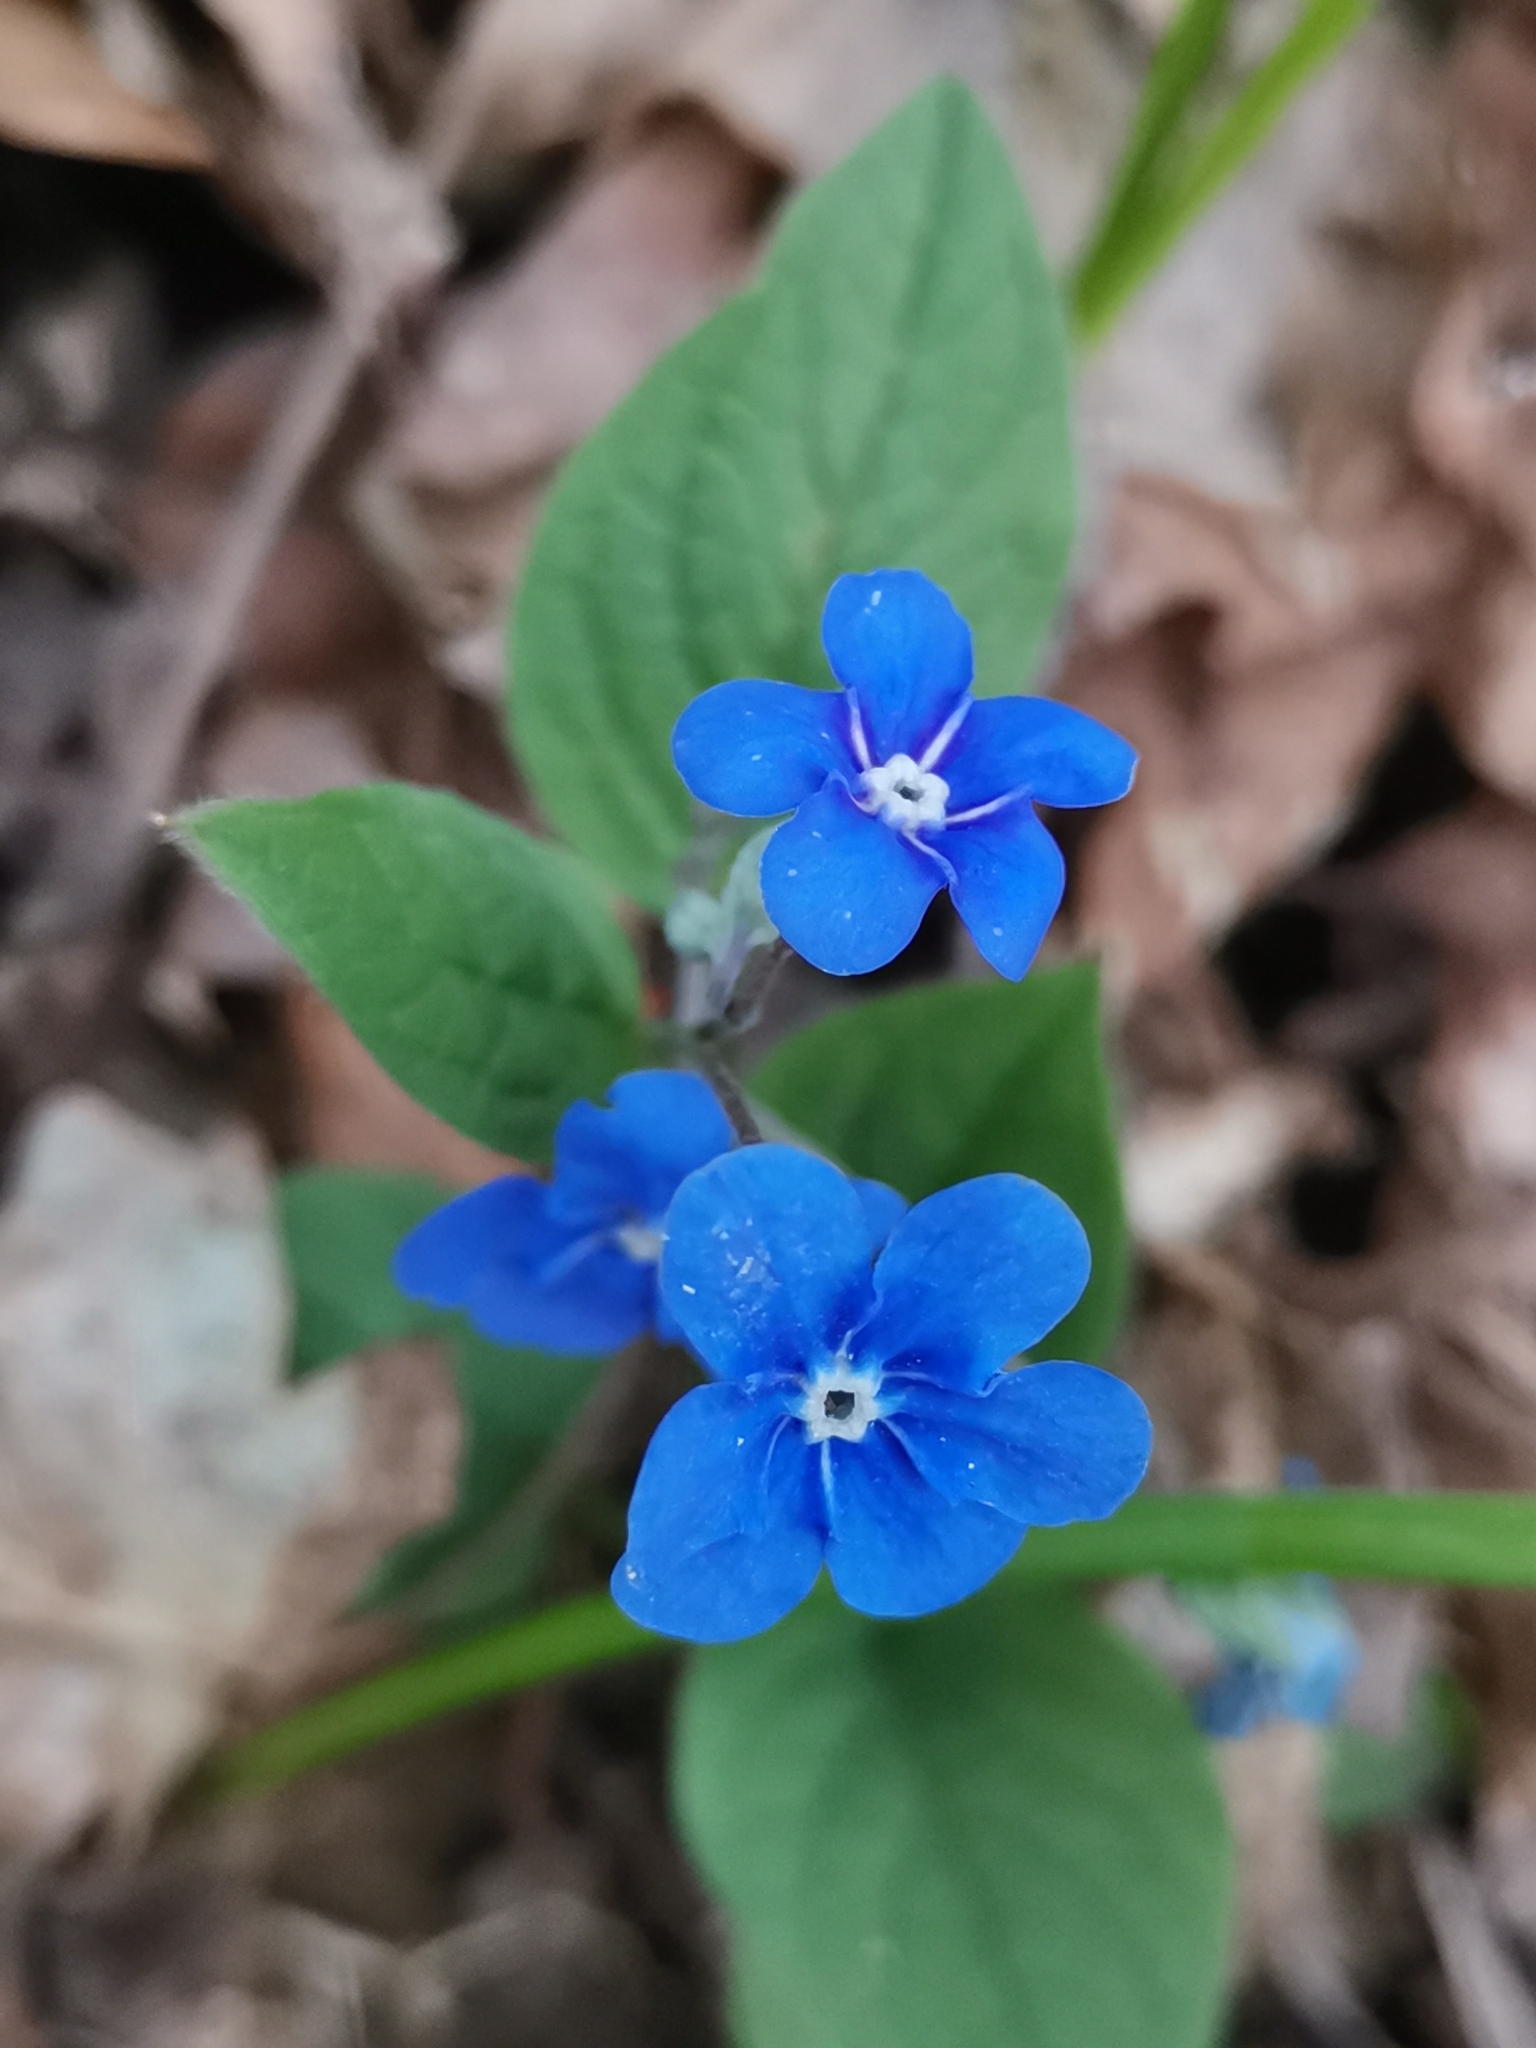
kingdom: Plantae
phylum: Tracheophyta
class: Magnoliopsida
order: Boraginales
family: Boraginaceae
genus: Omphalodes
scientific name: Omphalodes verna
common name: Blue-eyed-mary
